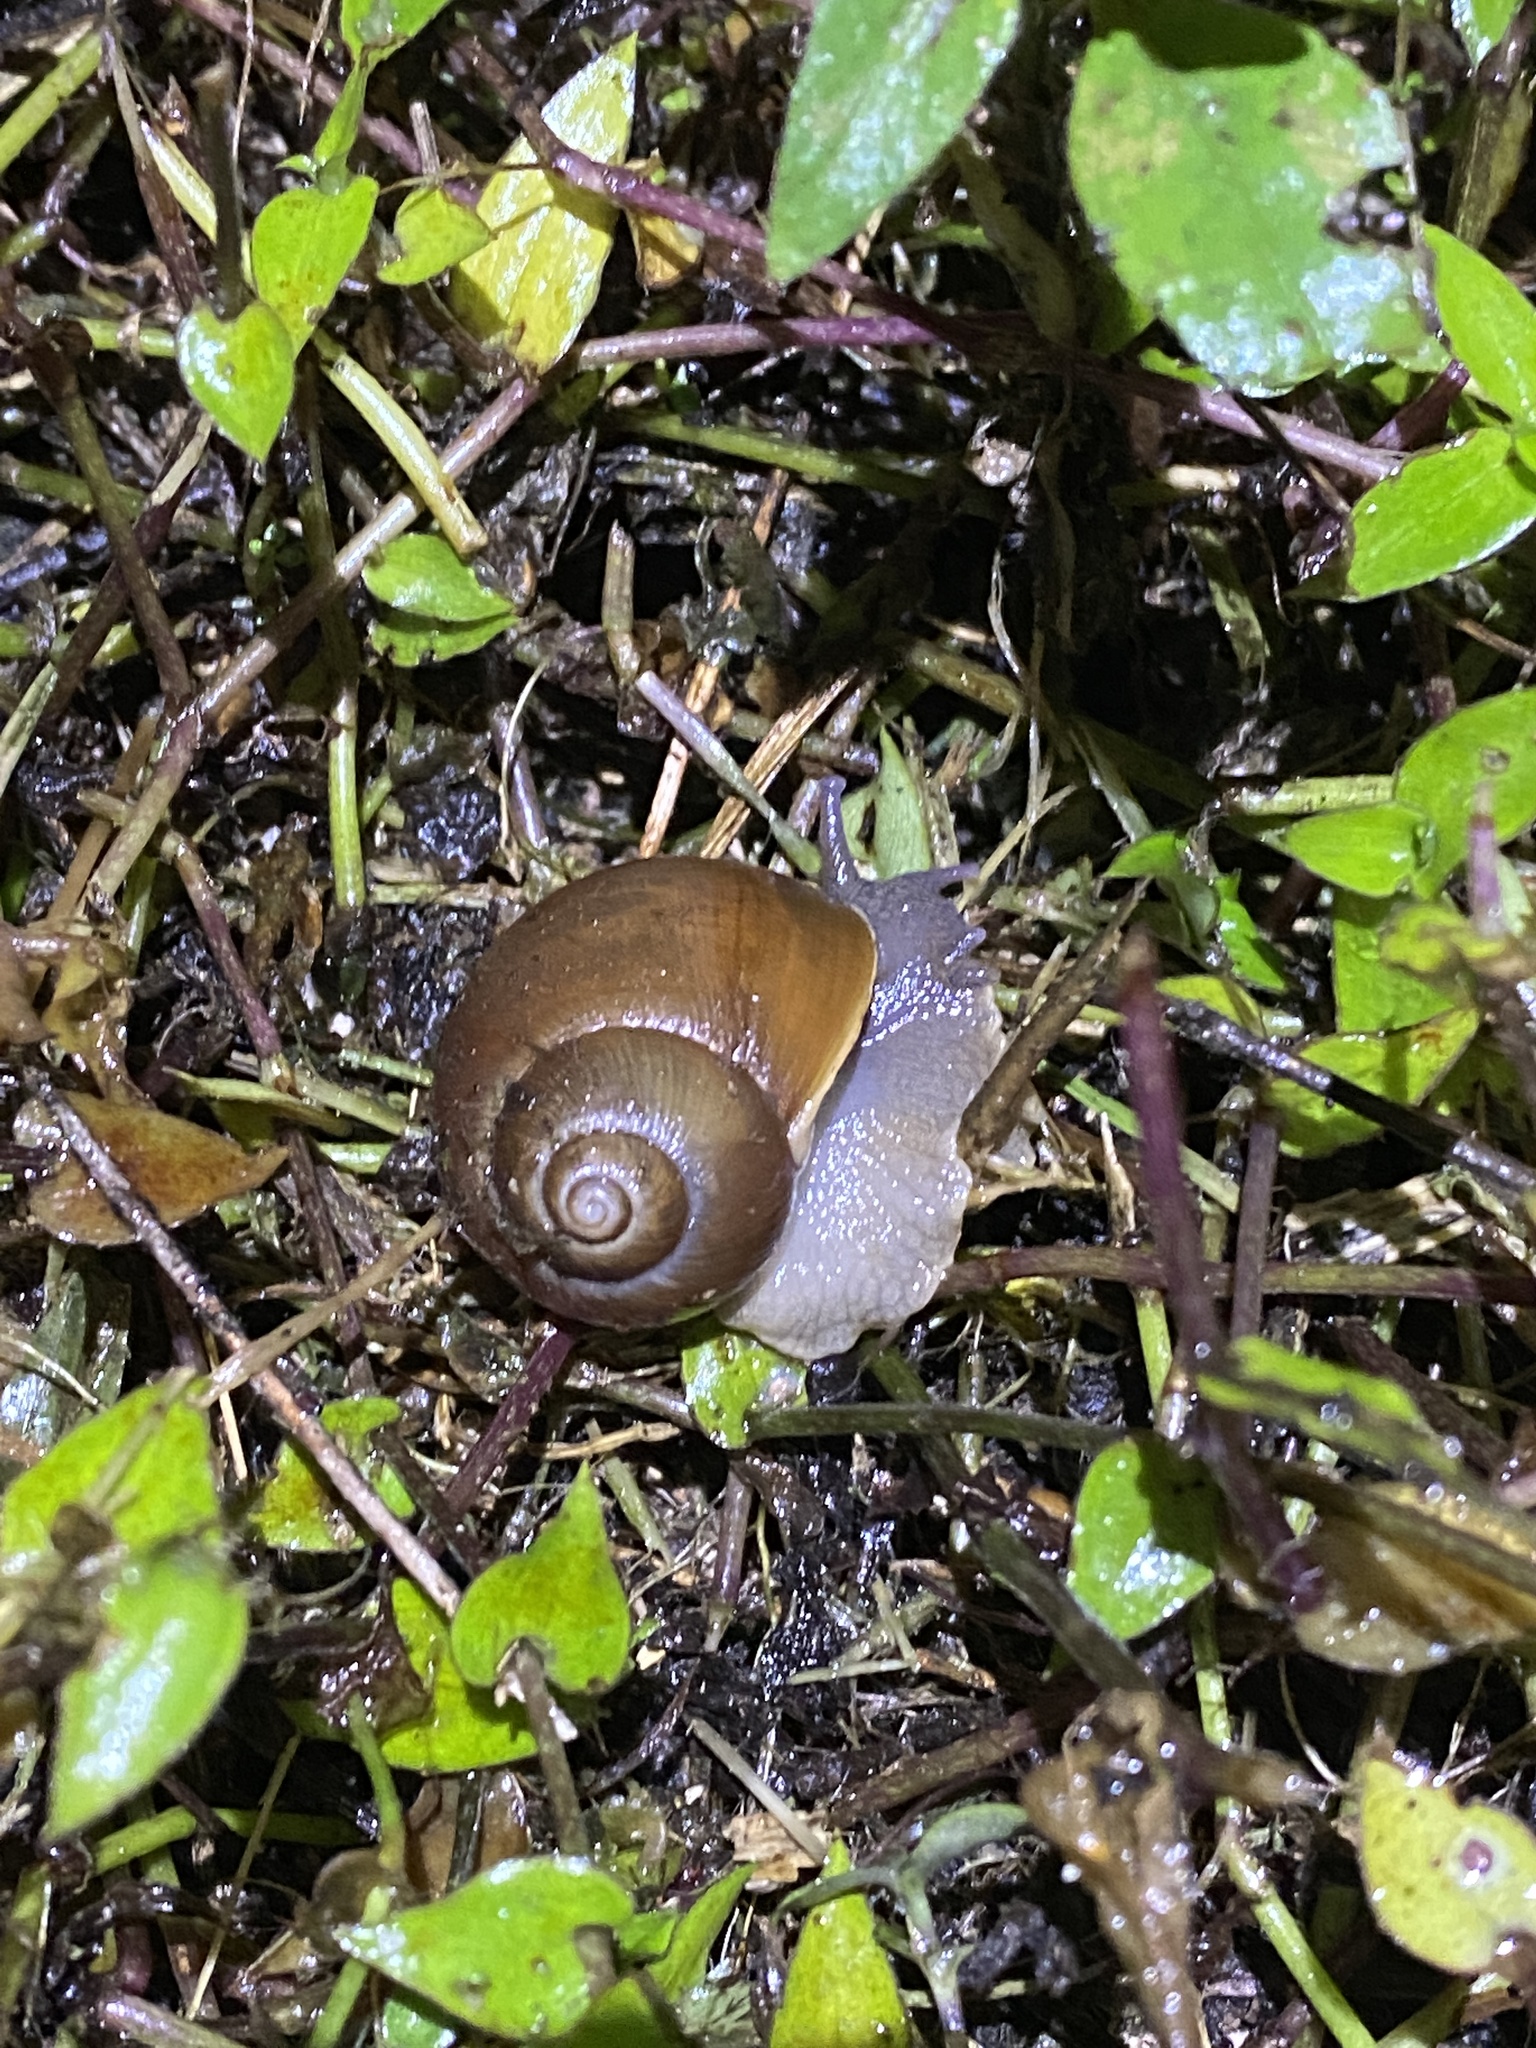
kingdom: Animalia
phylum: Mollusca
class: Gastropoda
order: Stylommatophora
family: Strophocheilidae
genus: Megalobulimus
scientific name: Megalobulimus oblongus
